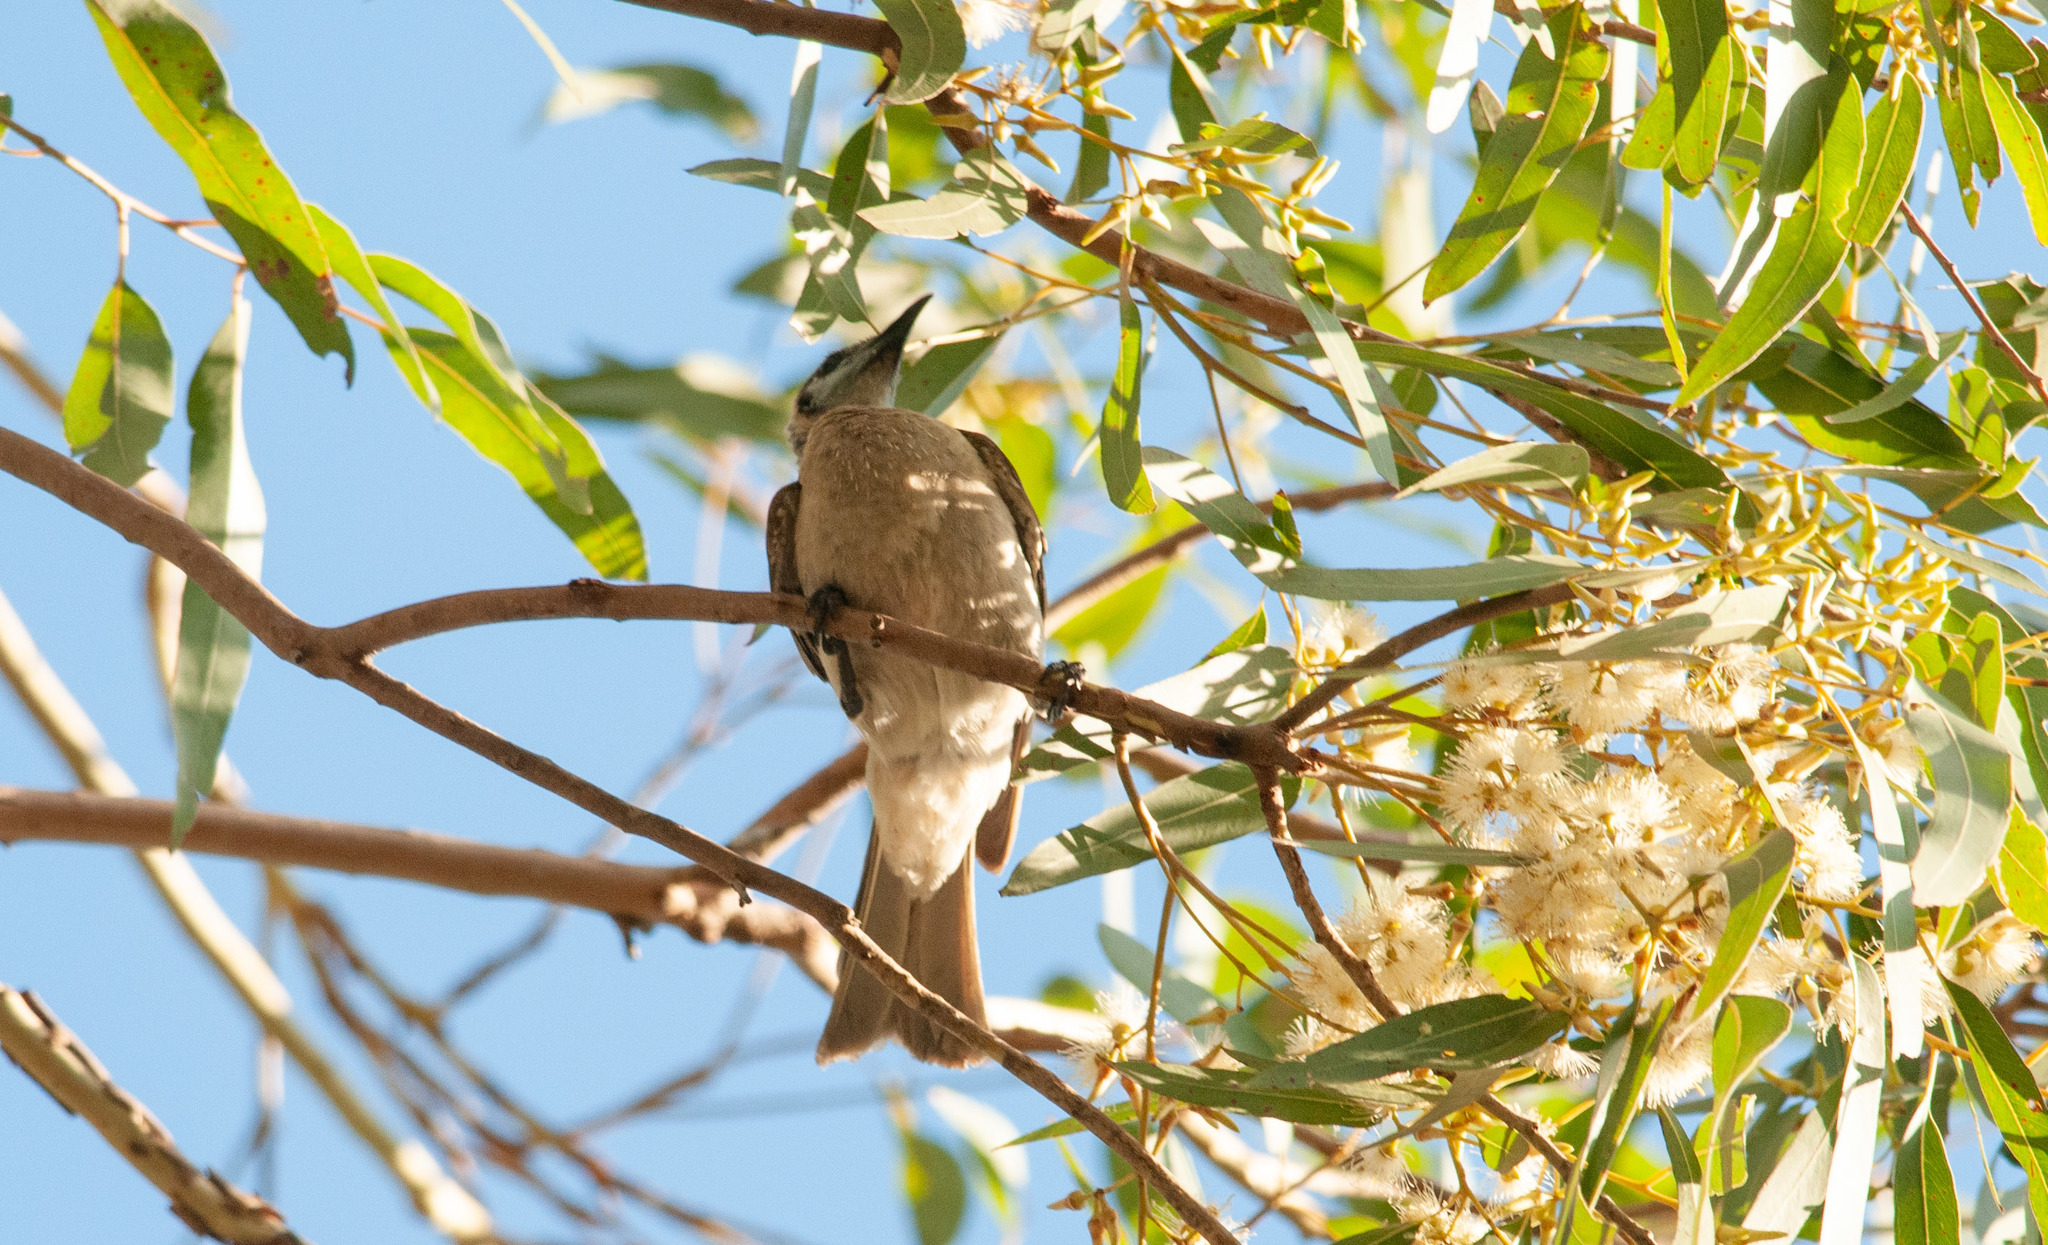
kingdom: Animalia
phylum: Chordata
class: Aves
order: Passeriformes
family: Meliphagidae
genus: Philemon
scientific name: Philemon citreogularis
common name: Little friarbird
